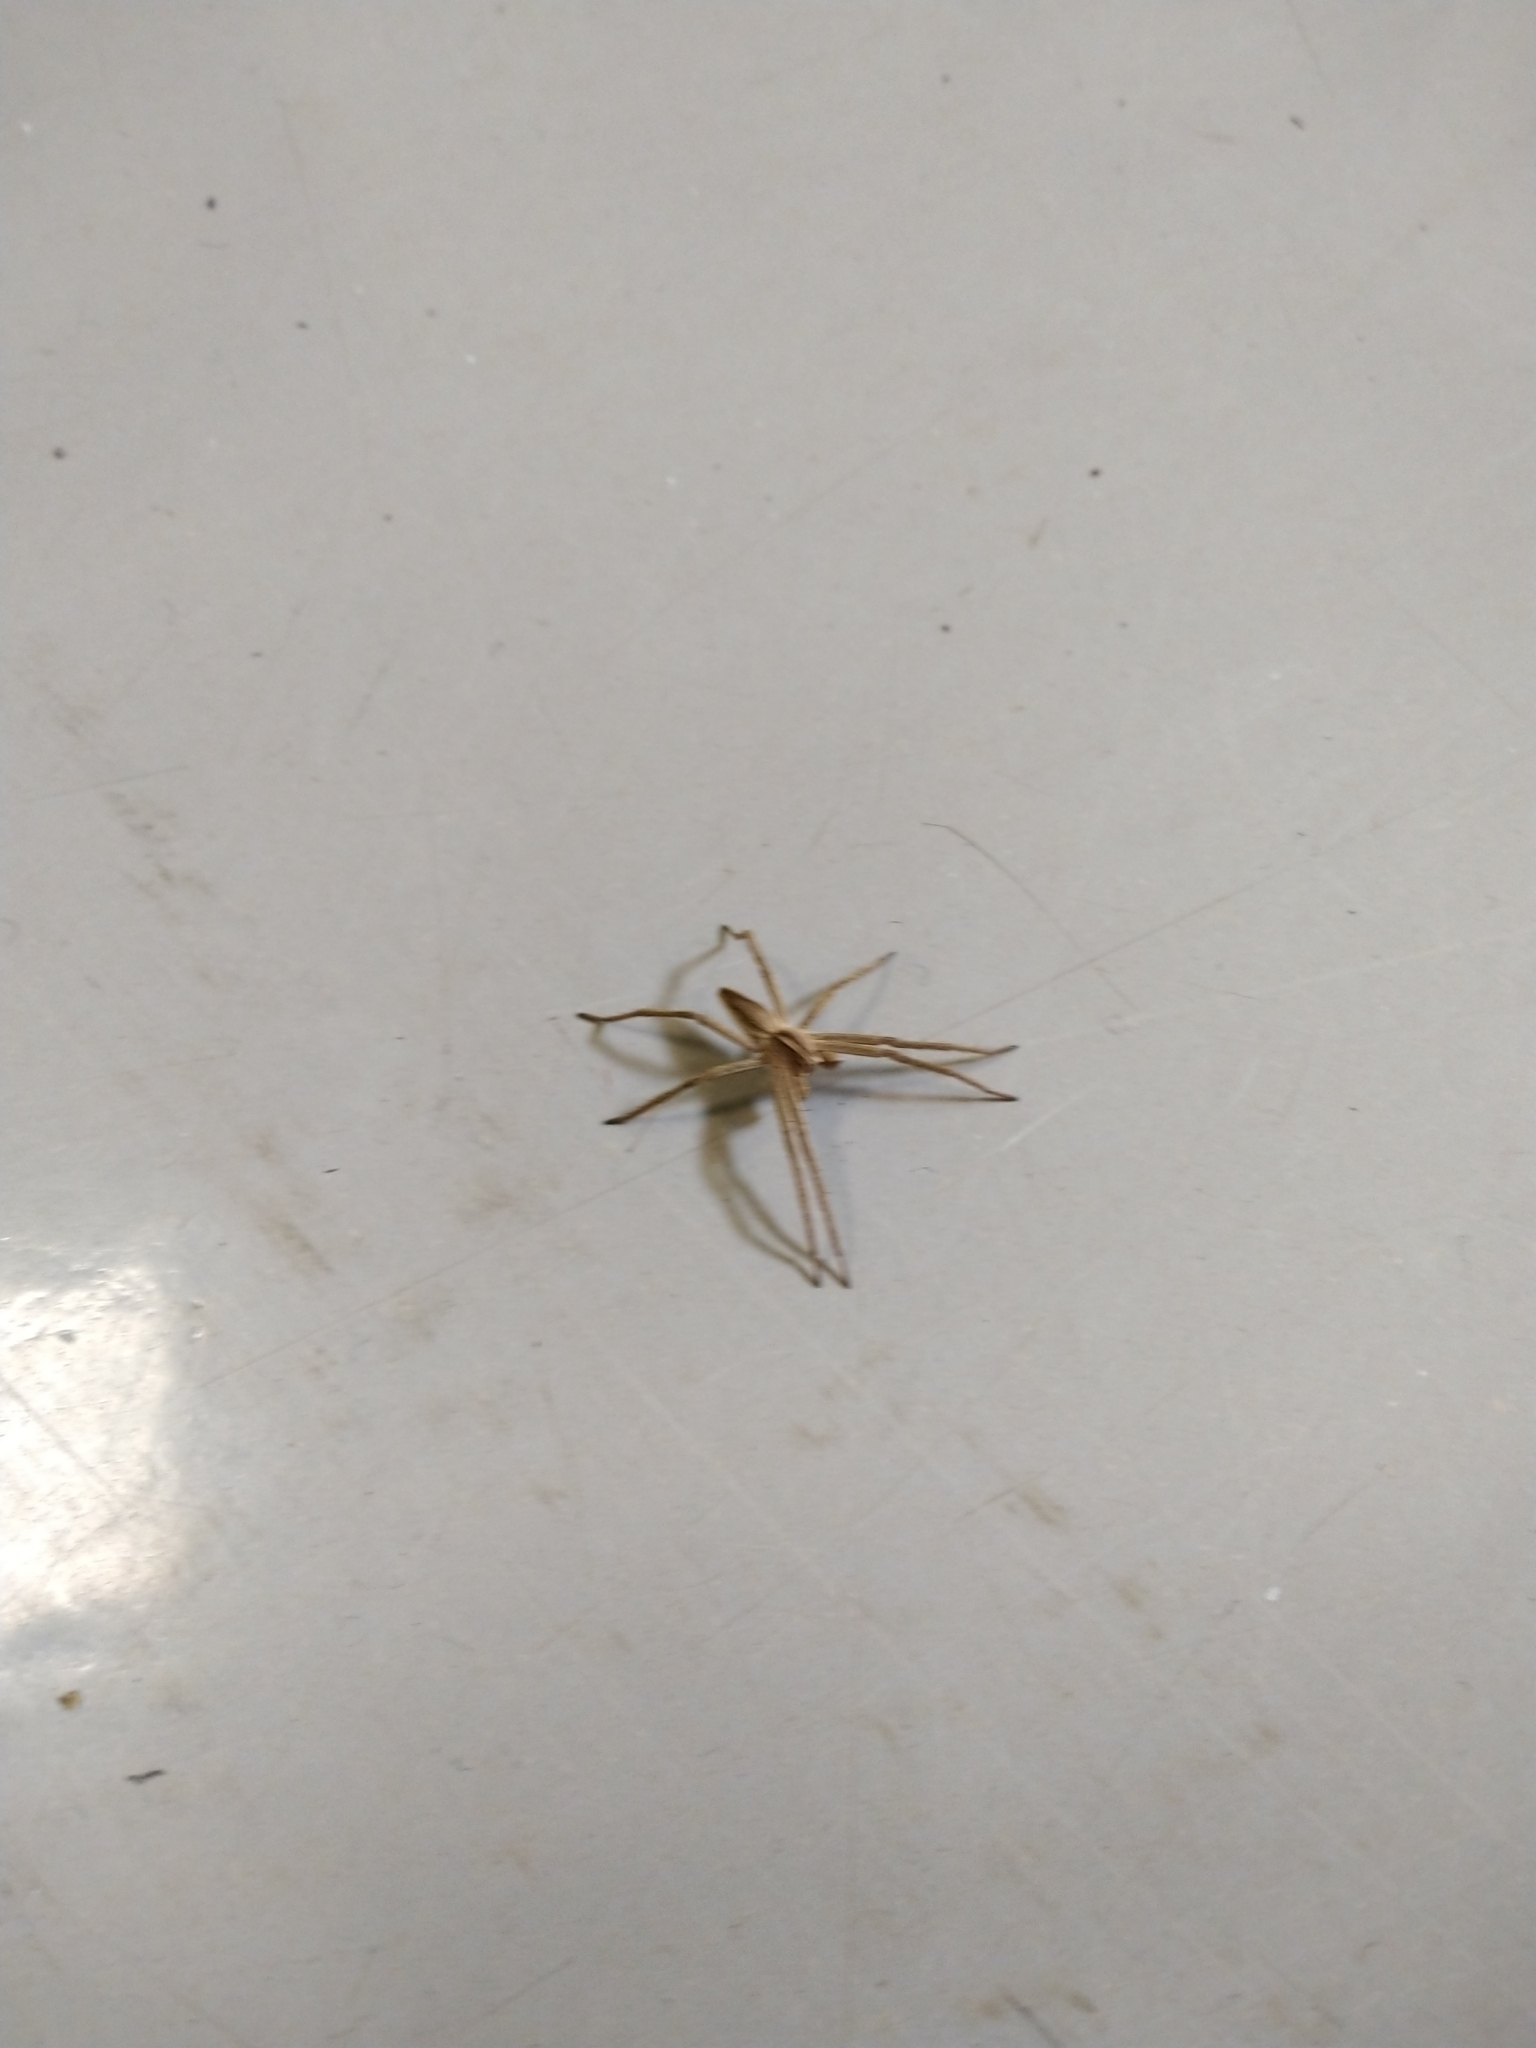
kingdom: Animalia
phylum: Arthropoda
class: Arachnida
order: Araneae
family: Pisauridae
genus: Pisaura
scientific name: Pisaura mirabilis
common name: Tent spider
